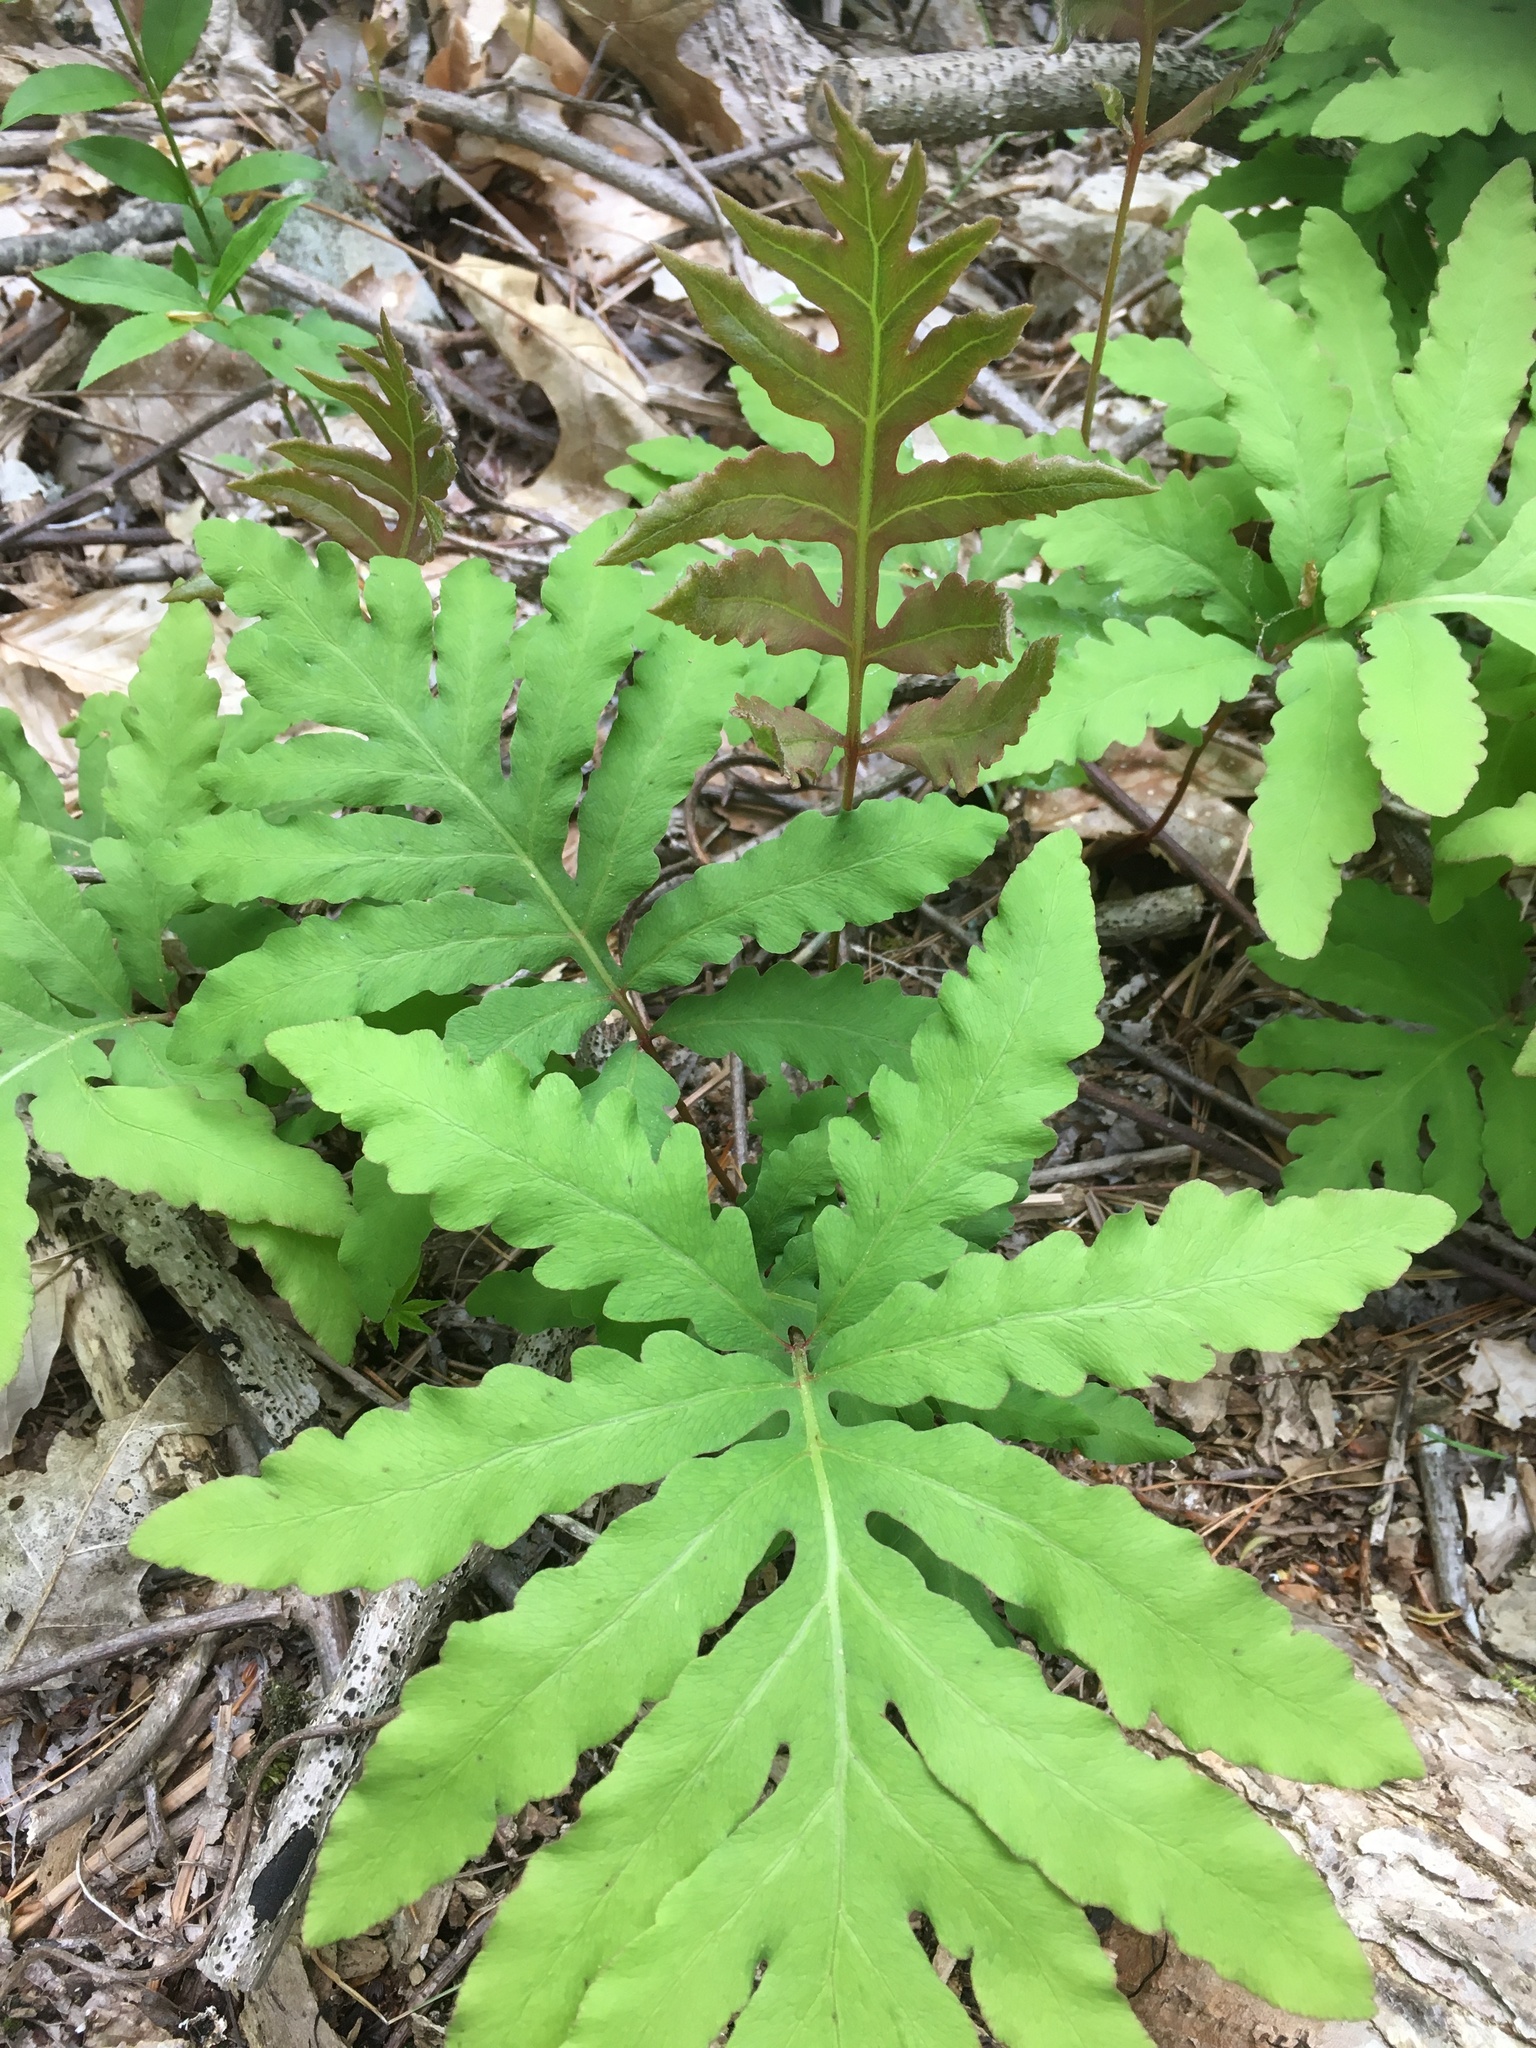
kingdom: Plantae
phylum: Tracheophyta
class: Polypodiopsida
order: Polypodiales
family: Onocleaceae
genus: Onoclea
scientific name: Onoclea sensibilis
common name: Sensitive fern
